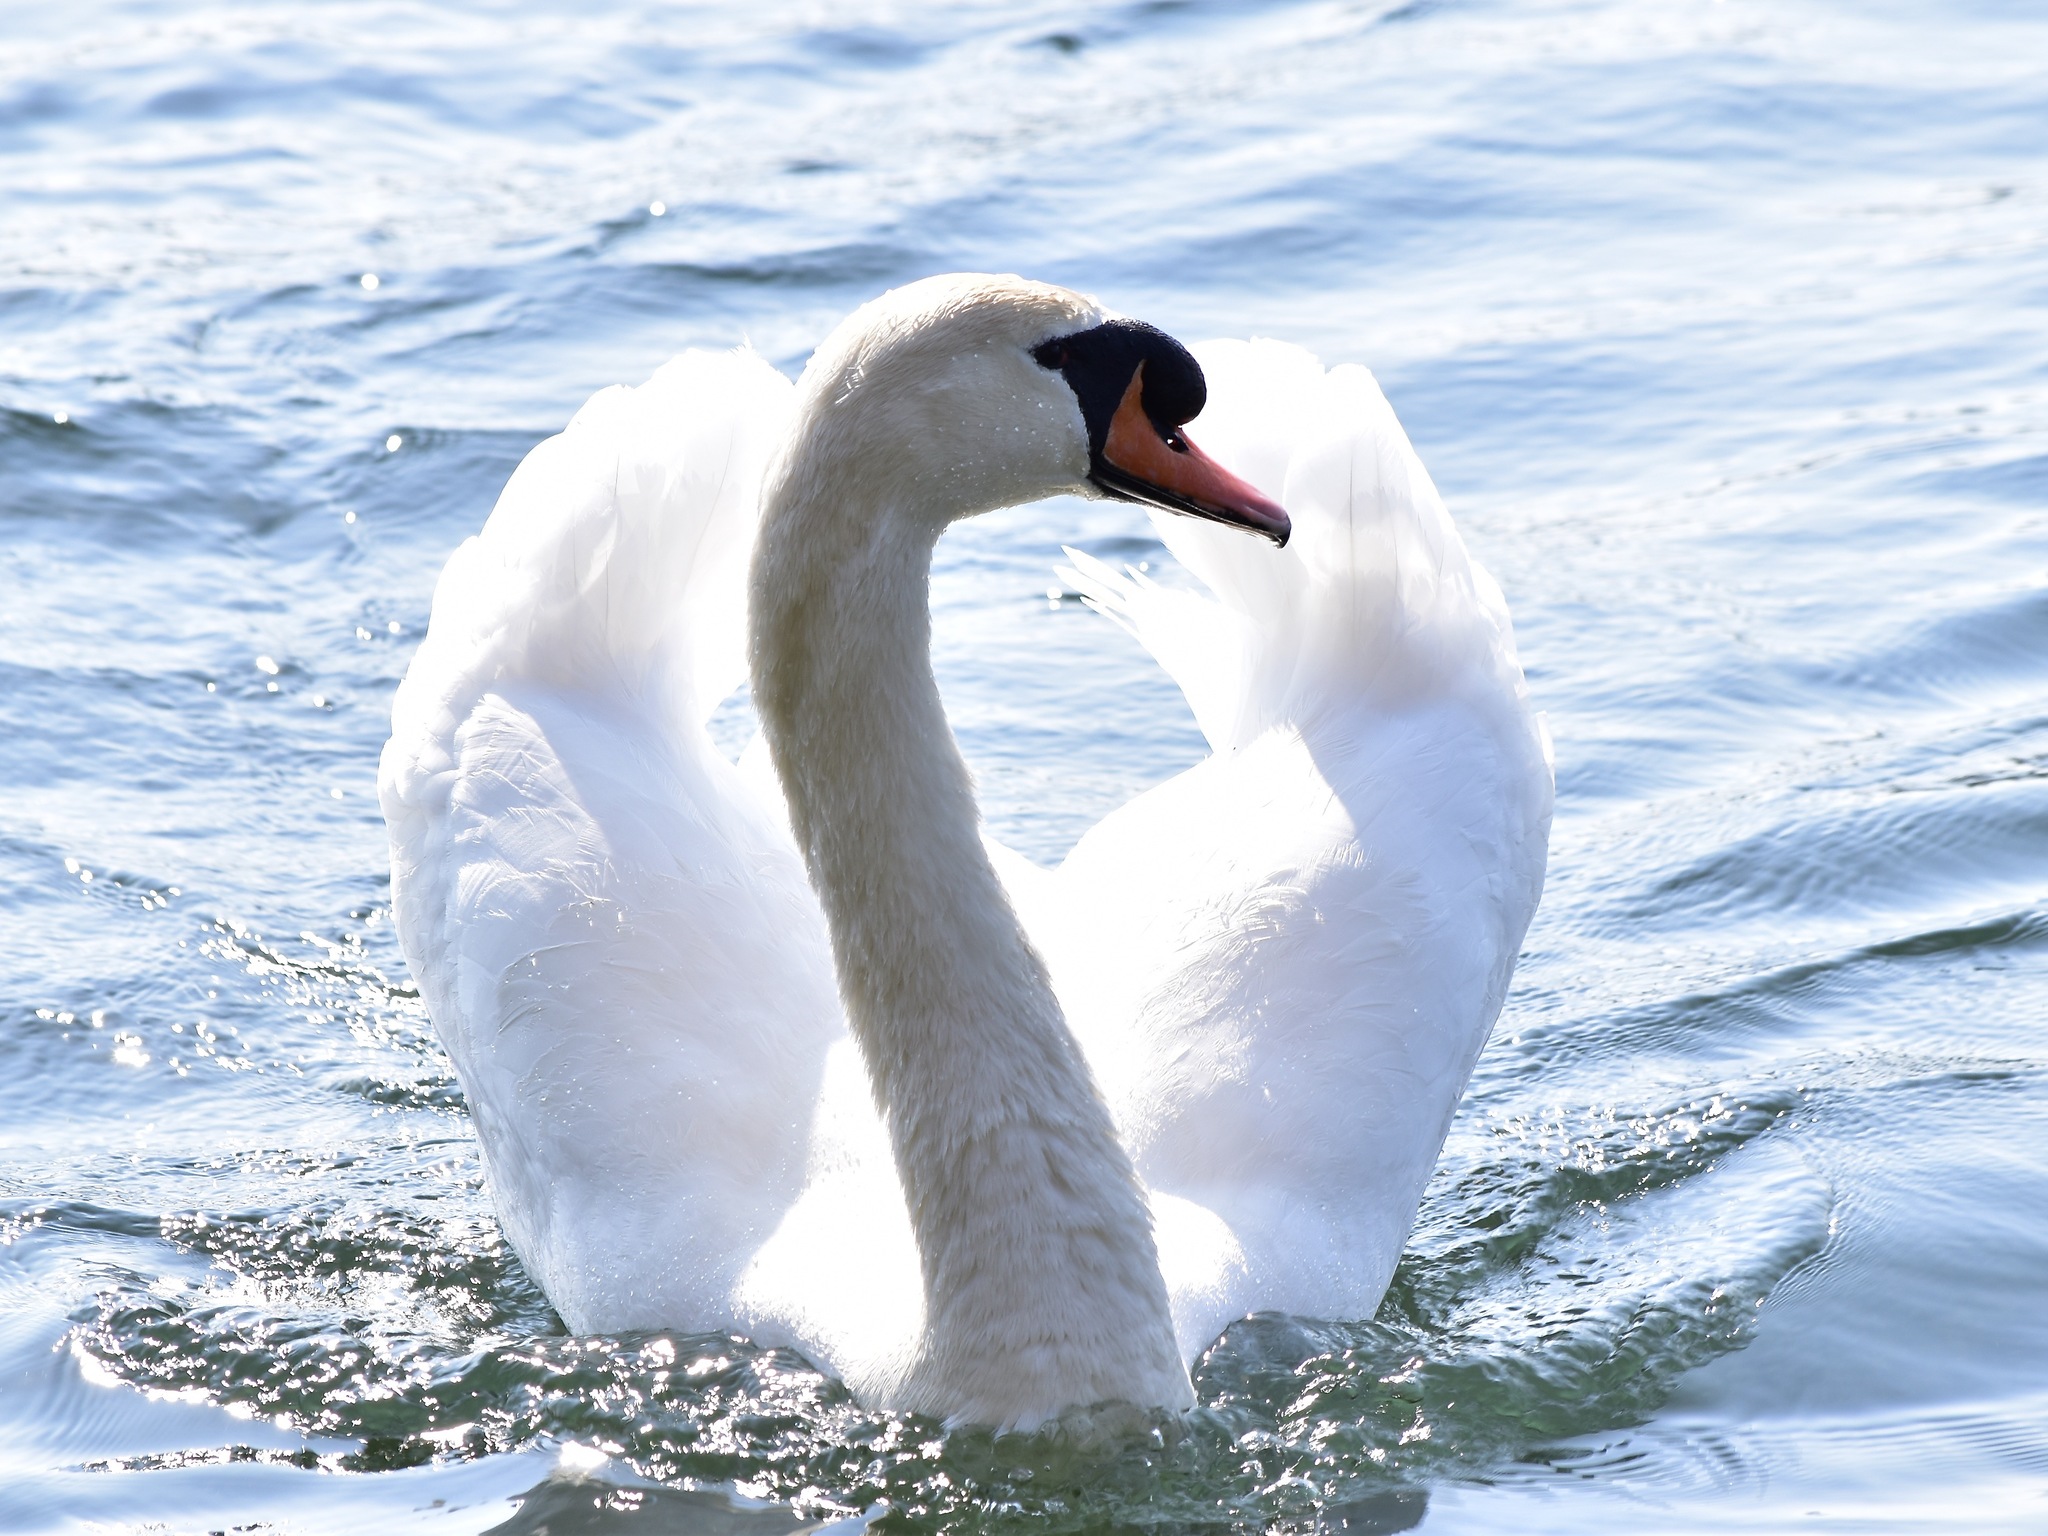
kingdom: Animalia
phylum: Chordata
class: Aves
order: Anseriformes
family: Anatidae
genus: Cygnus
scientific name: Cygnus olor
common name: Mute swan
